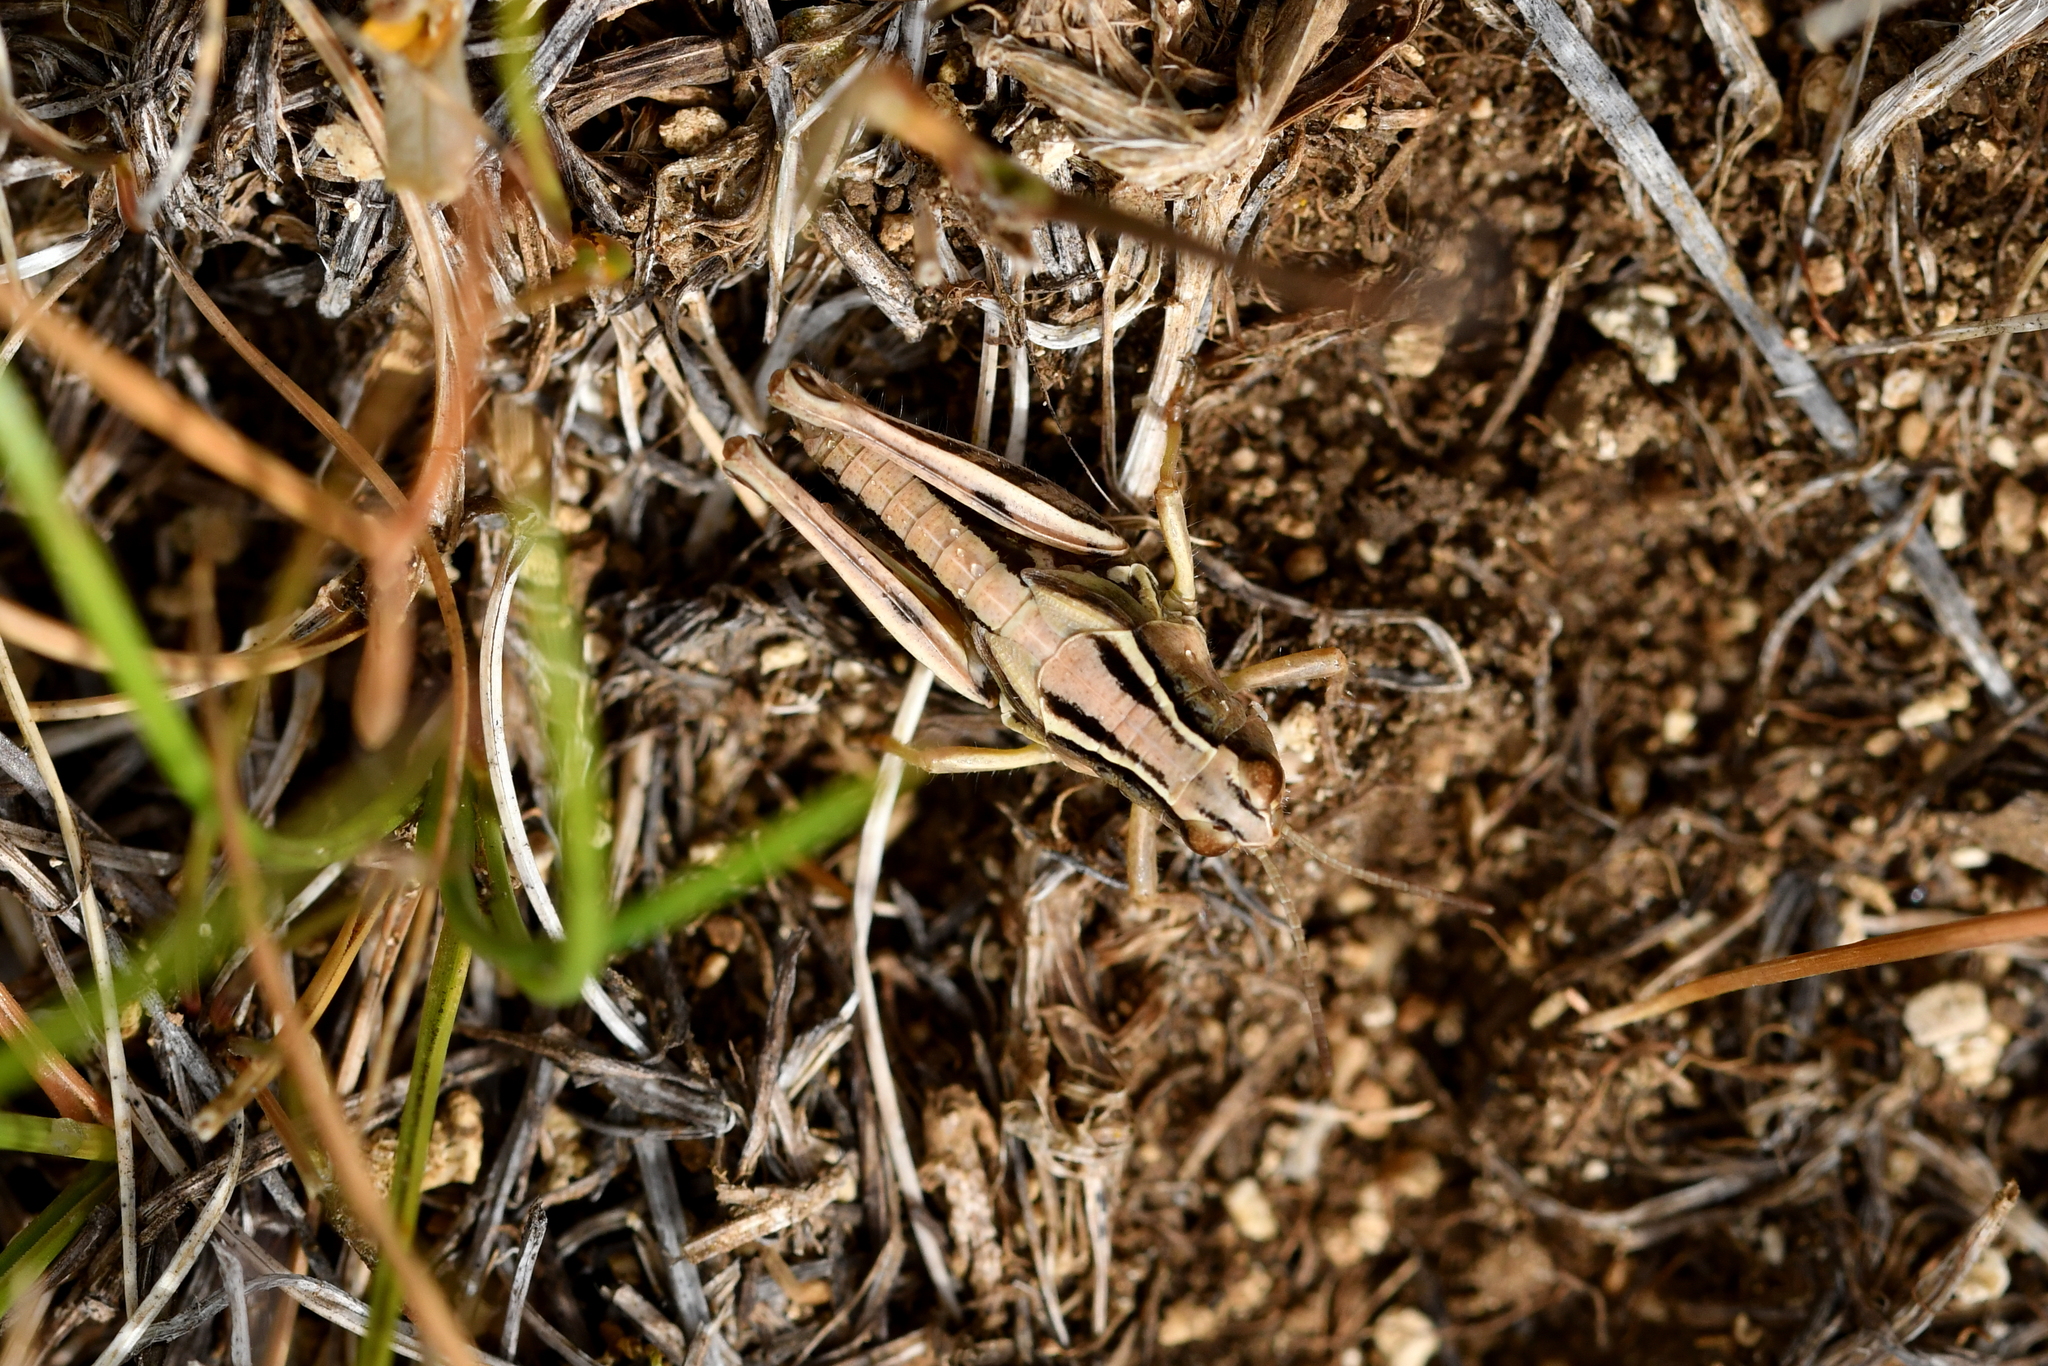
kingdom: Animalia
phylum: Arthropoda
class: Insecta
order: Orthoptera
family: Acrididae
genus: Phaulacridium
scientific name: Phaulacridium marginale
